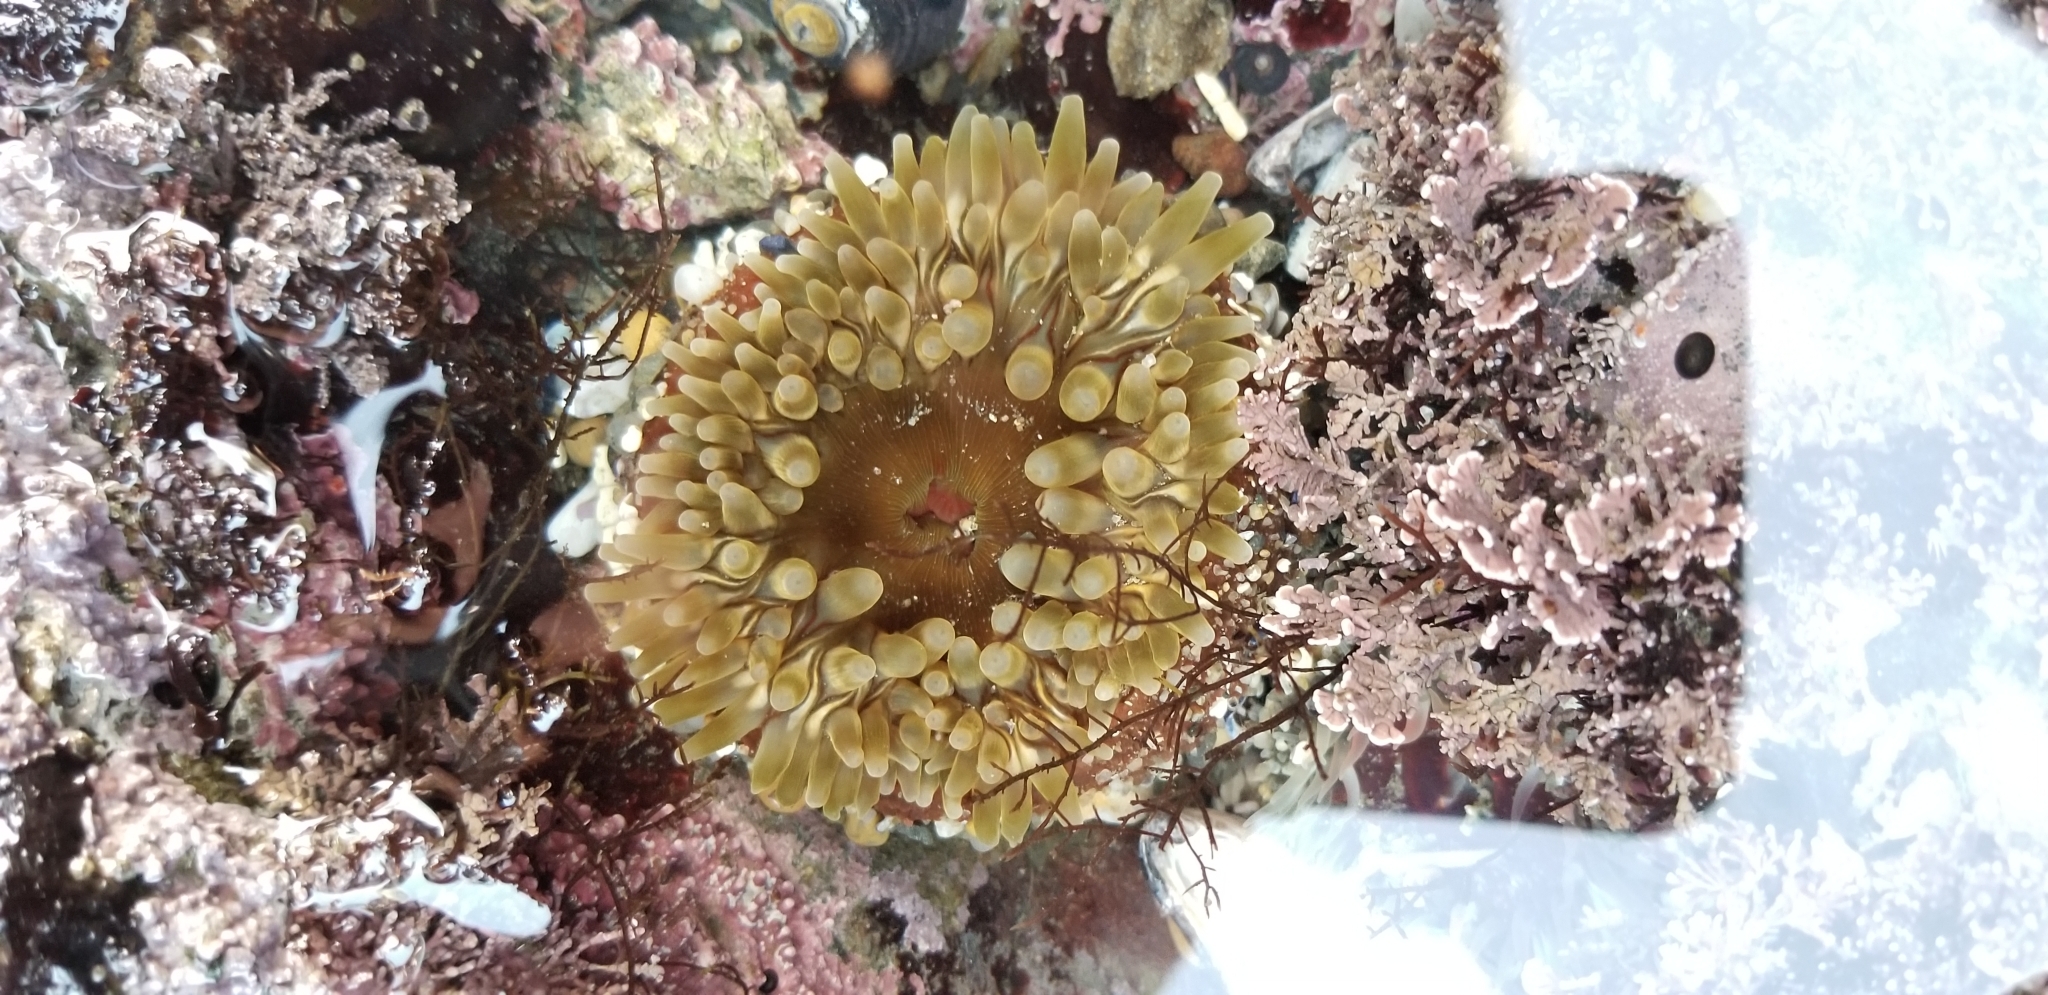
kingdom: Animalia
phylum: Cnidaria
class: Anthozoa
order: Actiniaria
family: Actiniidae
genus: Urticina
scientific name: Urticina clandestina
